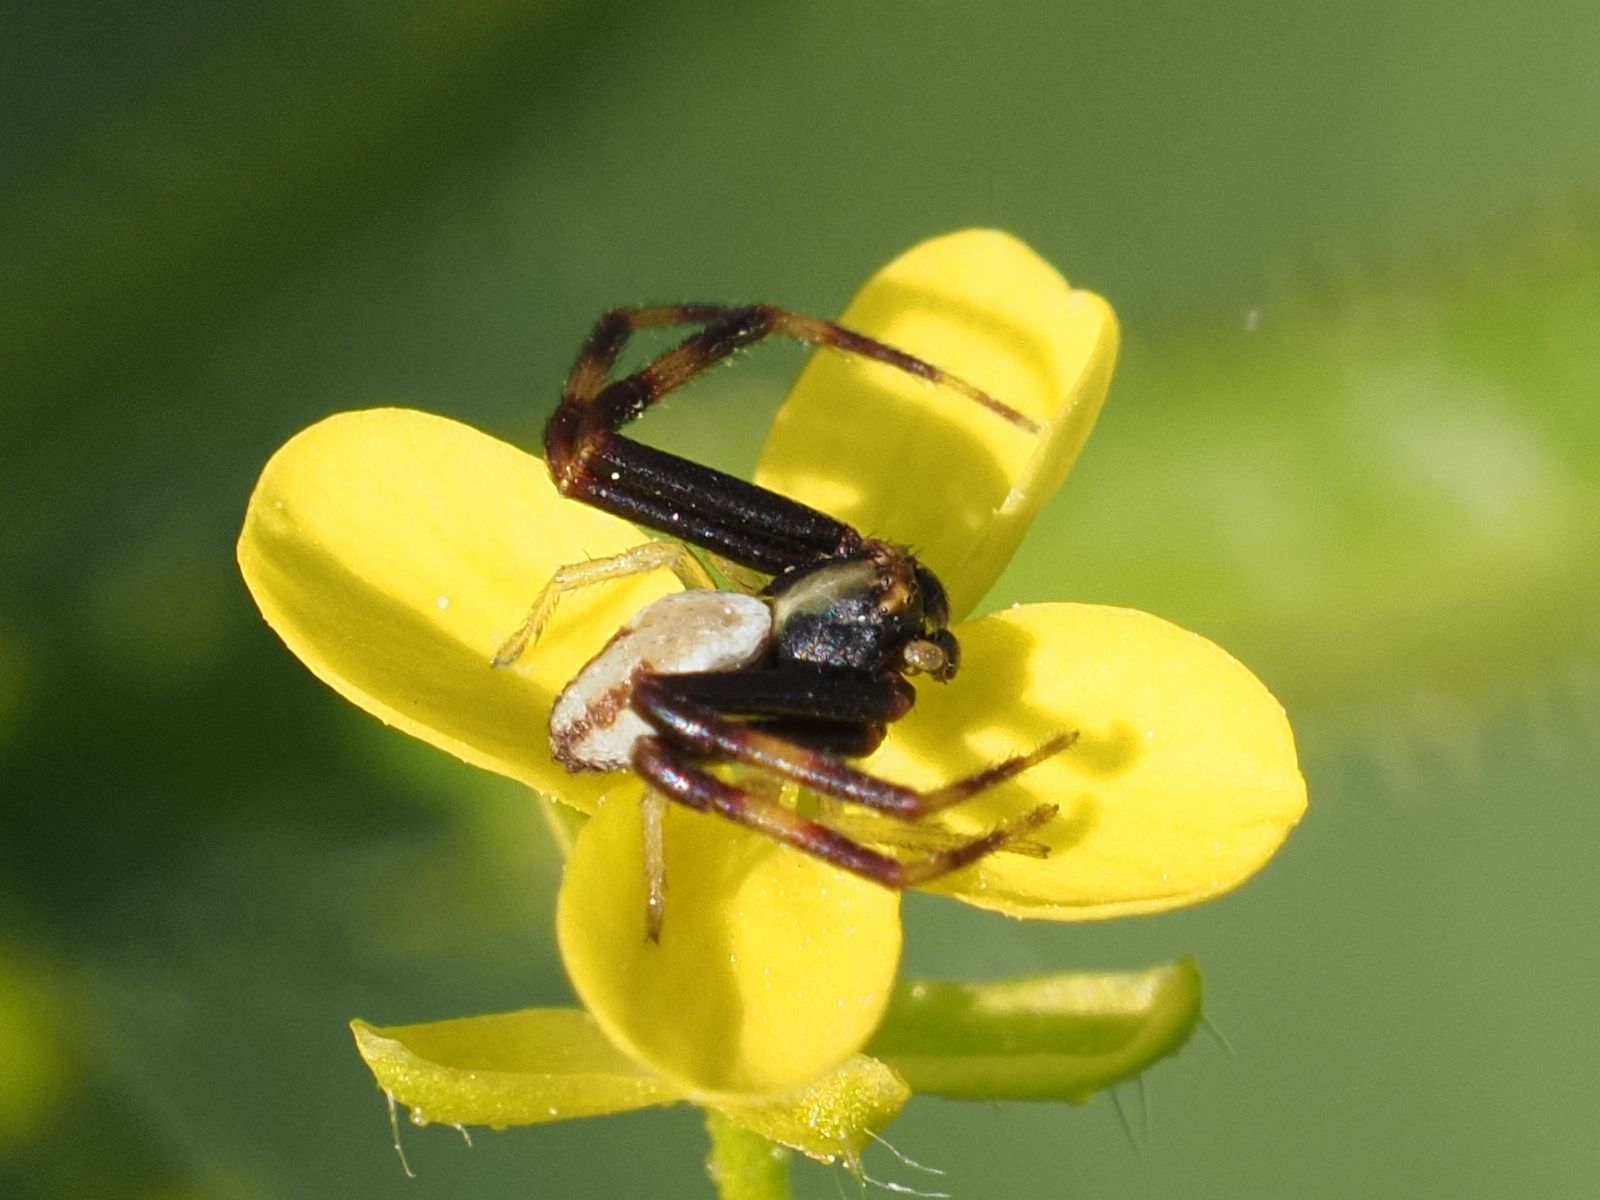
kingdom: Animalia
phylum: Arthropoda
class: Arachnida
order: Araneae
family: Thomisidae
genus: Misumena
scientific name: Misumena vatia
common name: Goldenrod crab spider
